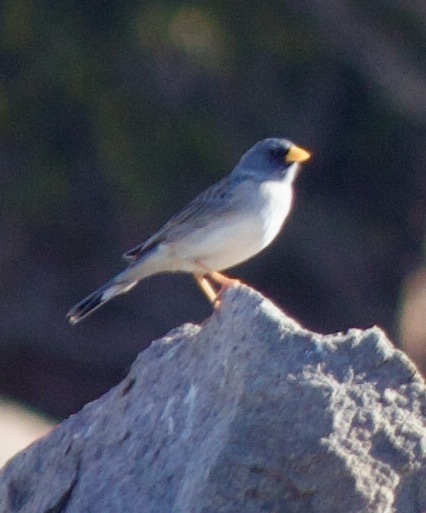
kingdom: Animalia
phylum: Chordata
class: Aves
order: Passeriformes
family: Thraupidae
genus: Porphyrospiza
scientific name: Porphyrospiza alaudina
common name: Band-tailed sierra finch
